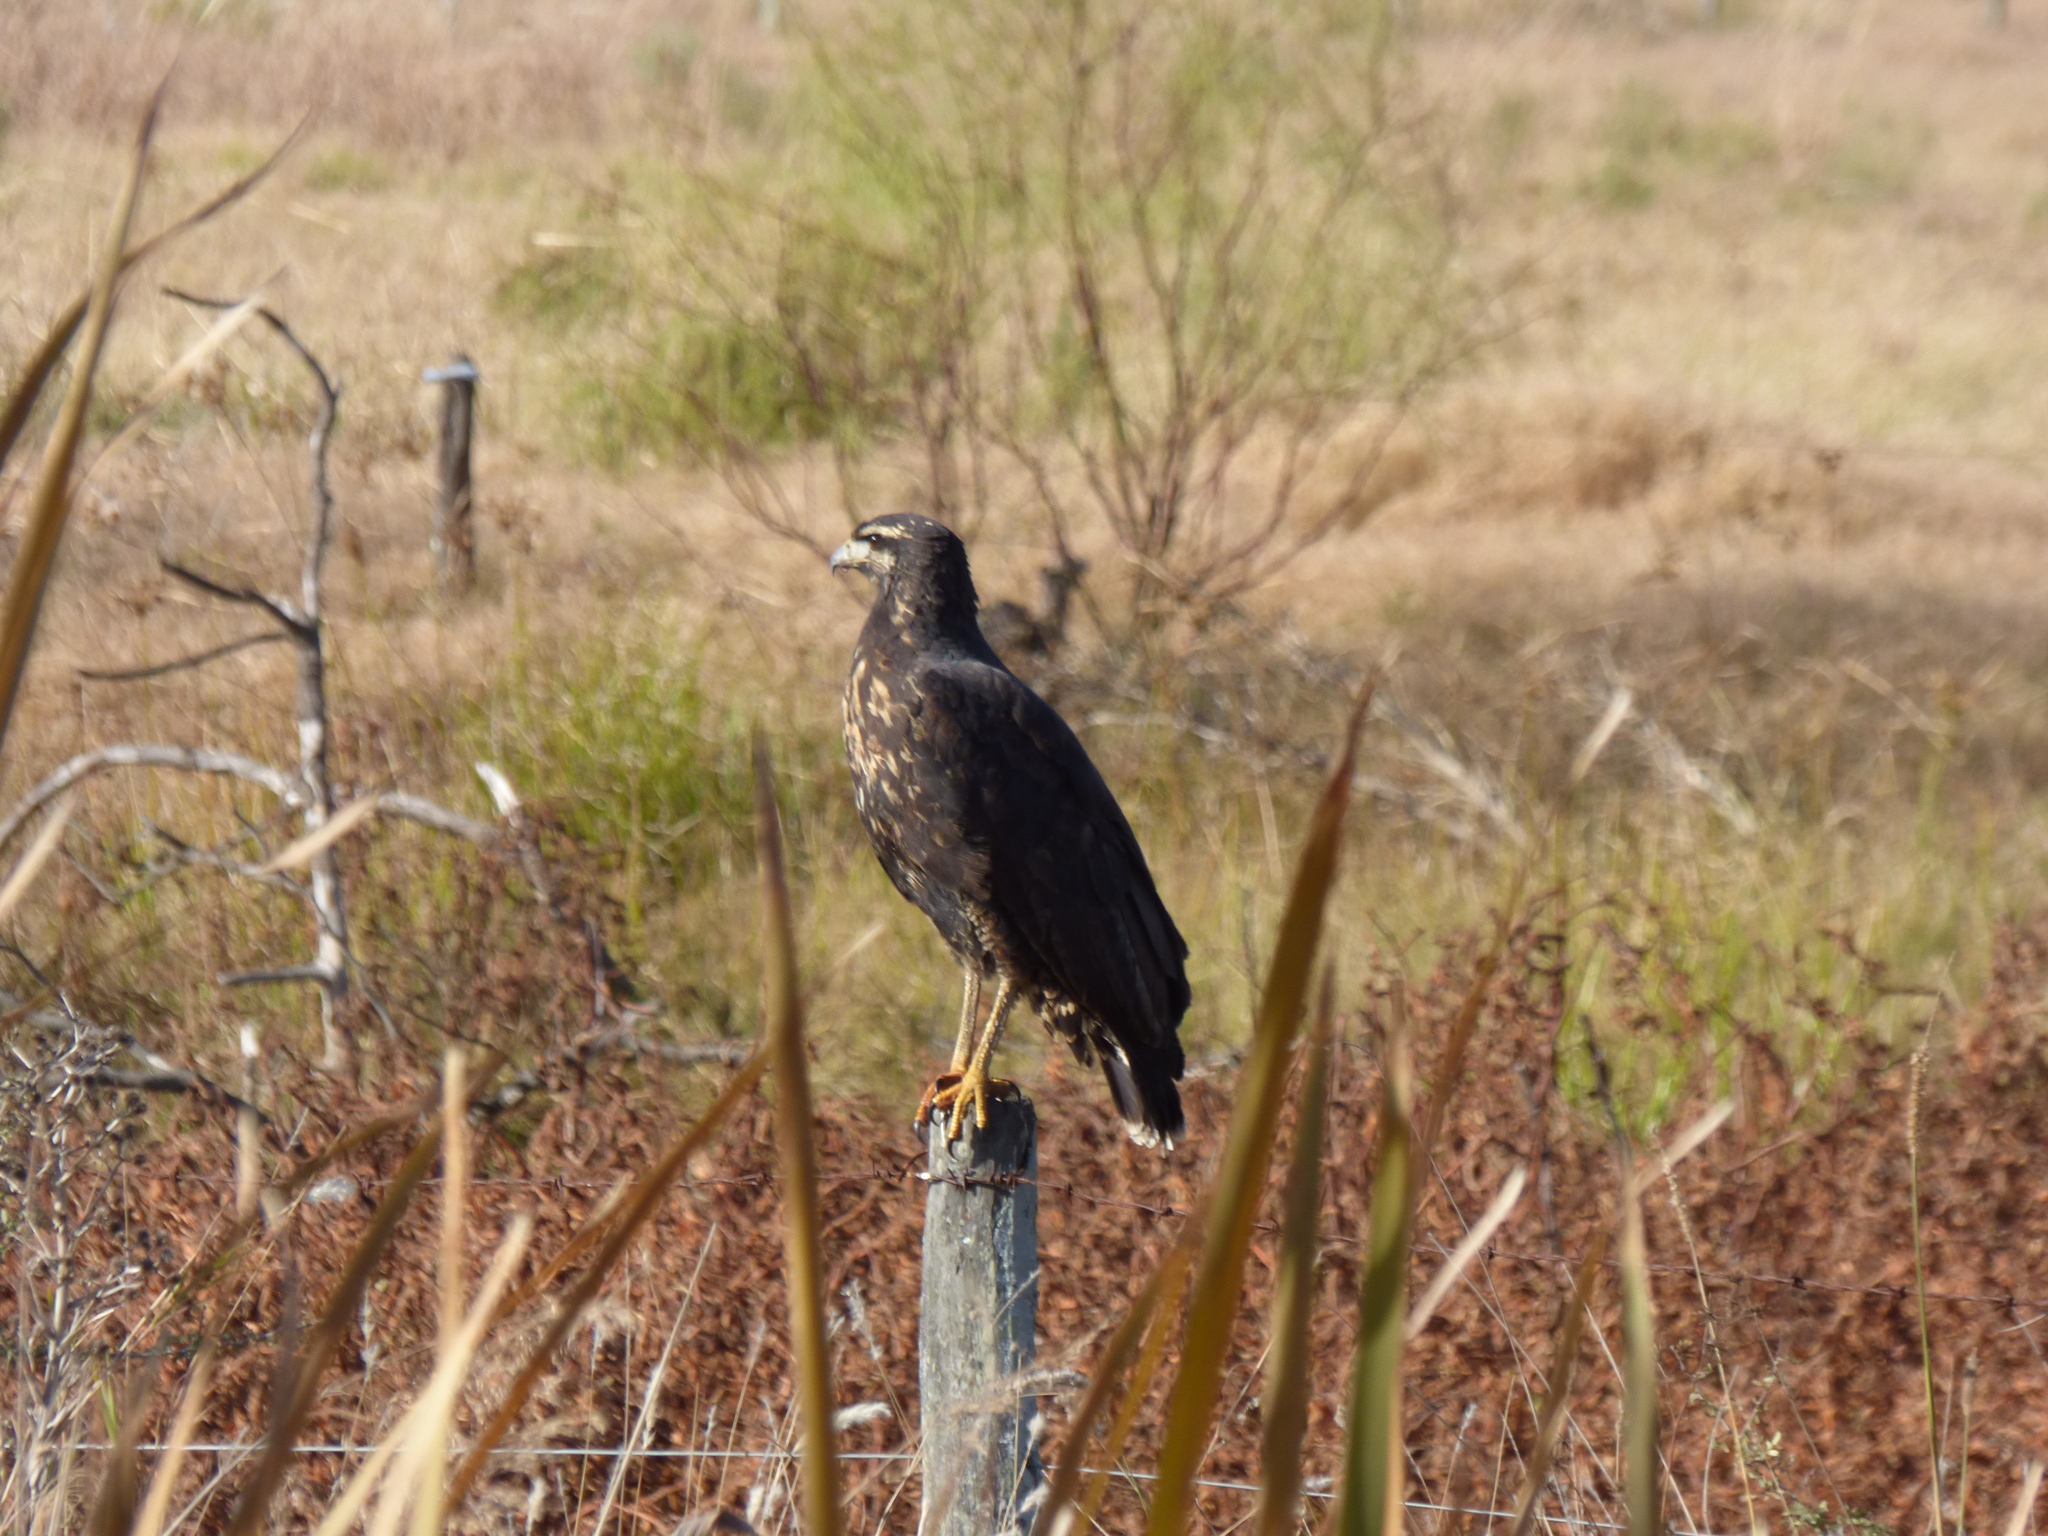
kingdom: Animalia
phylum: Chordata
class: Aves
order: Accipitriformes
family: Accipitridae
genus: Buteogallus
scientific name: Buteogallus urubitinga
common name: Great black hawk
